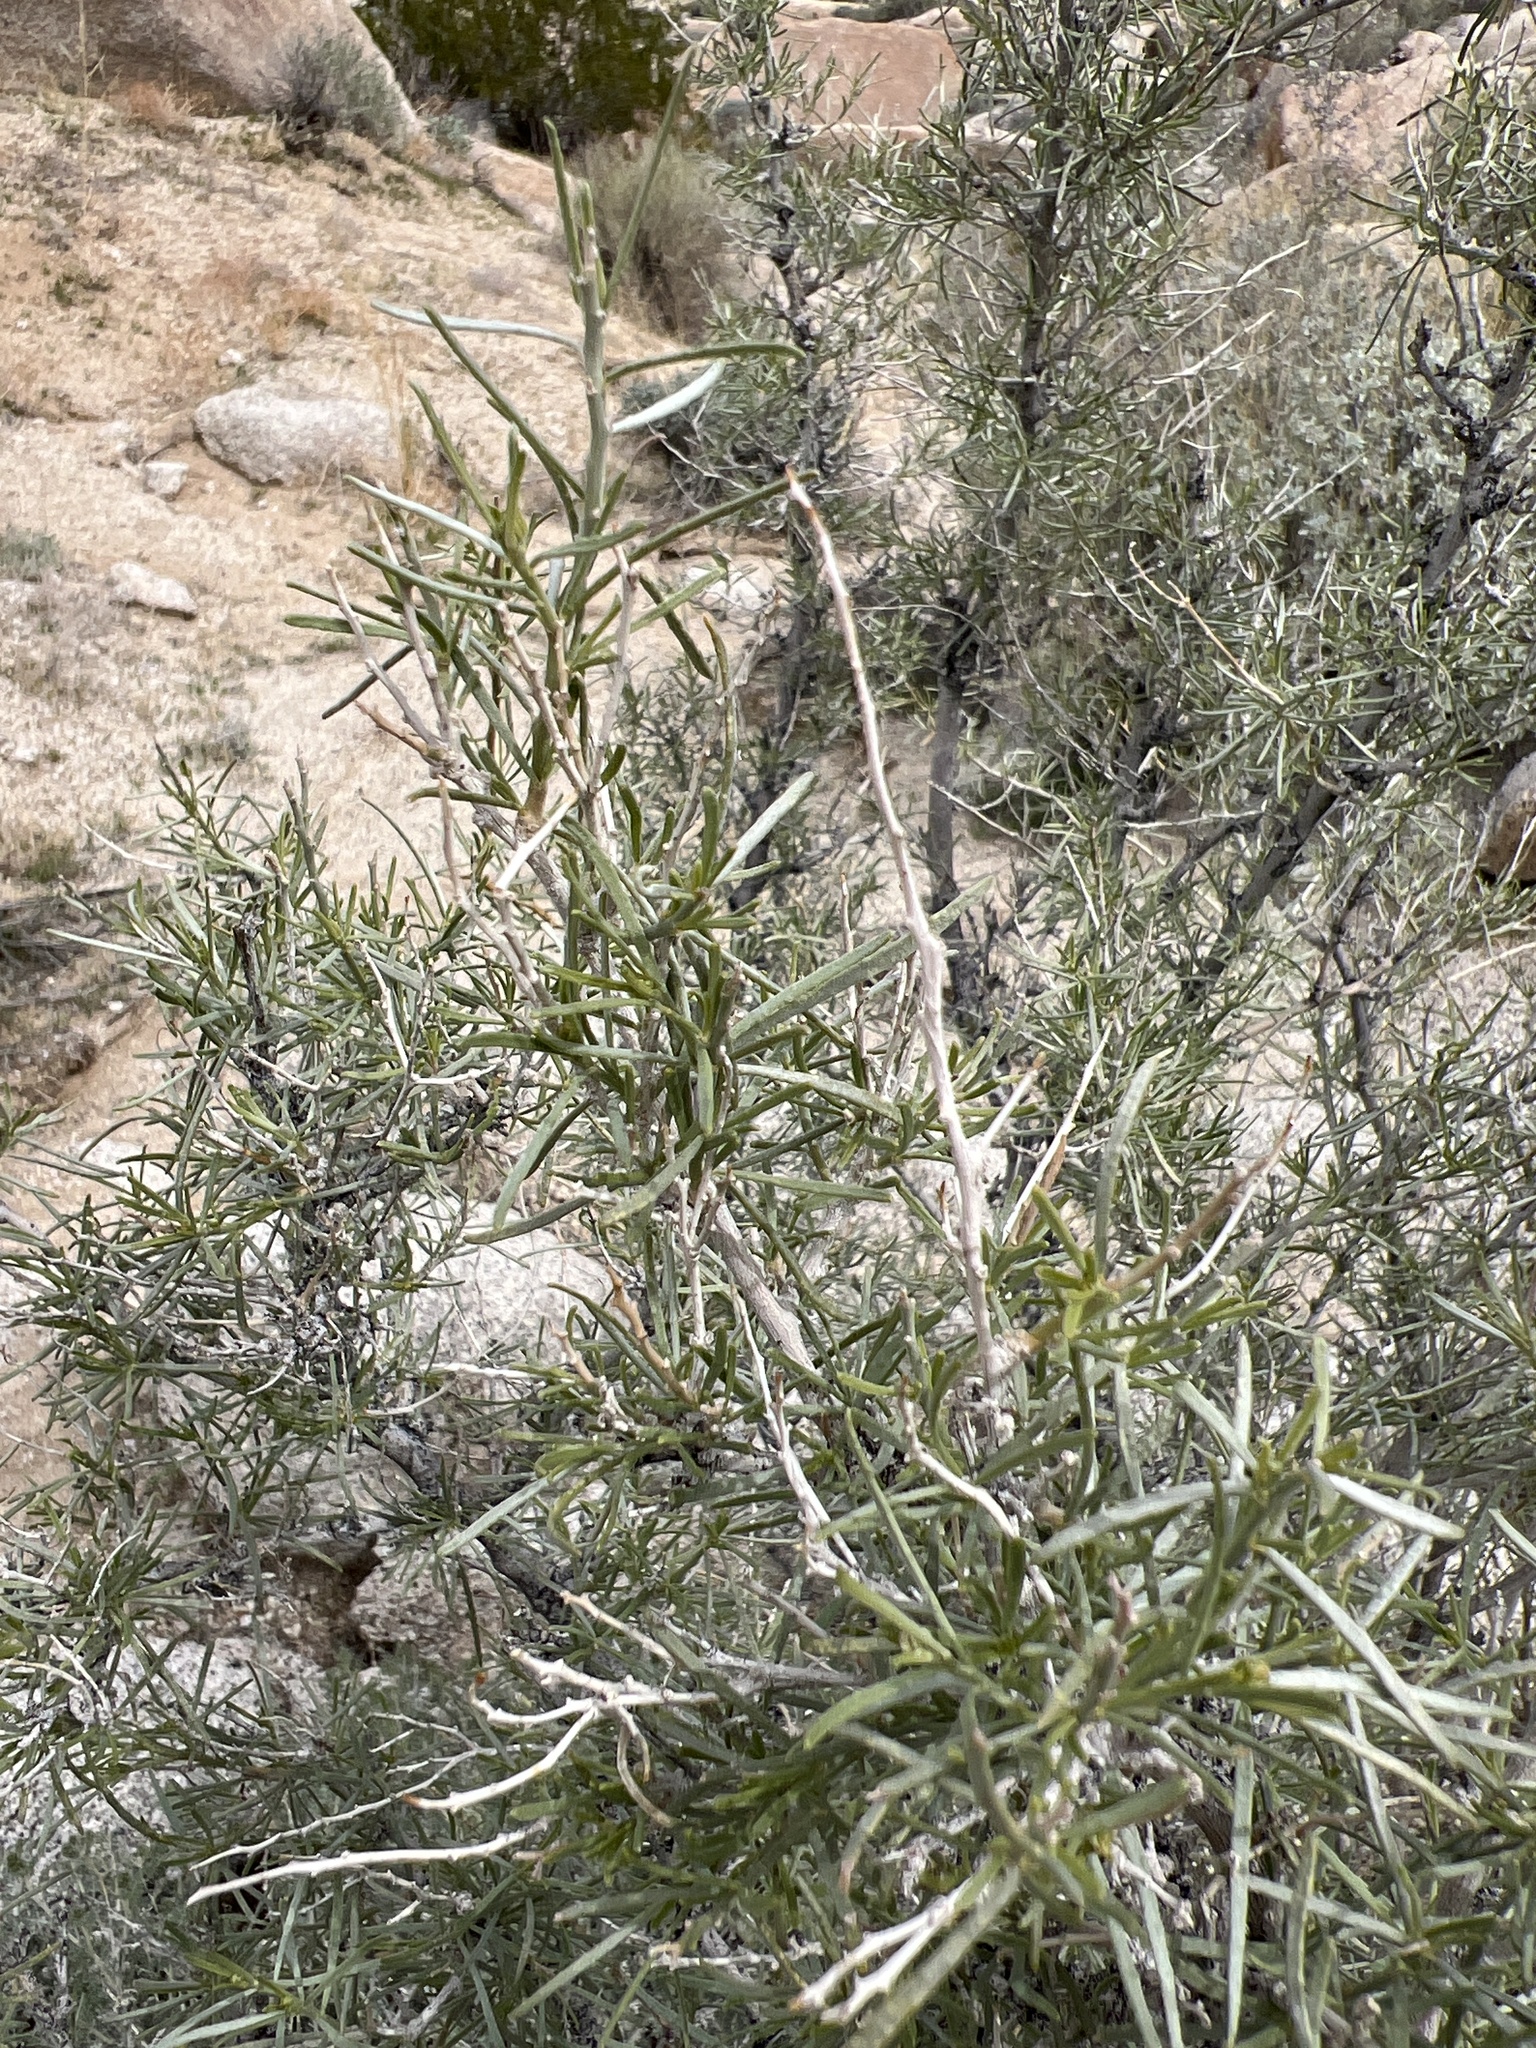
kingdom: Plantae
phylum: Tracheophyta
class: Magnoliopsida
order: Fabales
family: Fabaceae
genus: Psorothamnus
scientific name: Psorothamnus schottii
